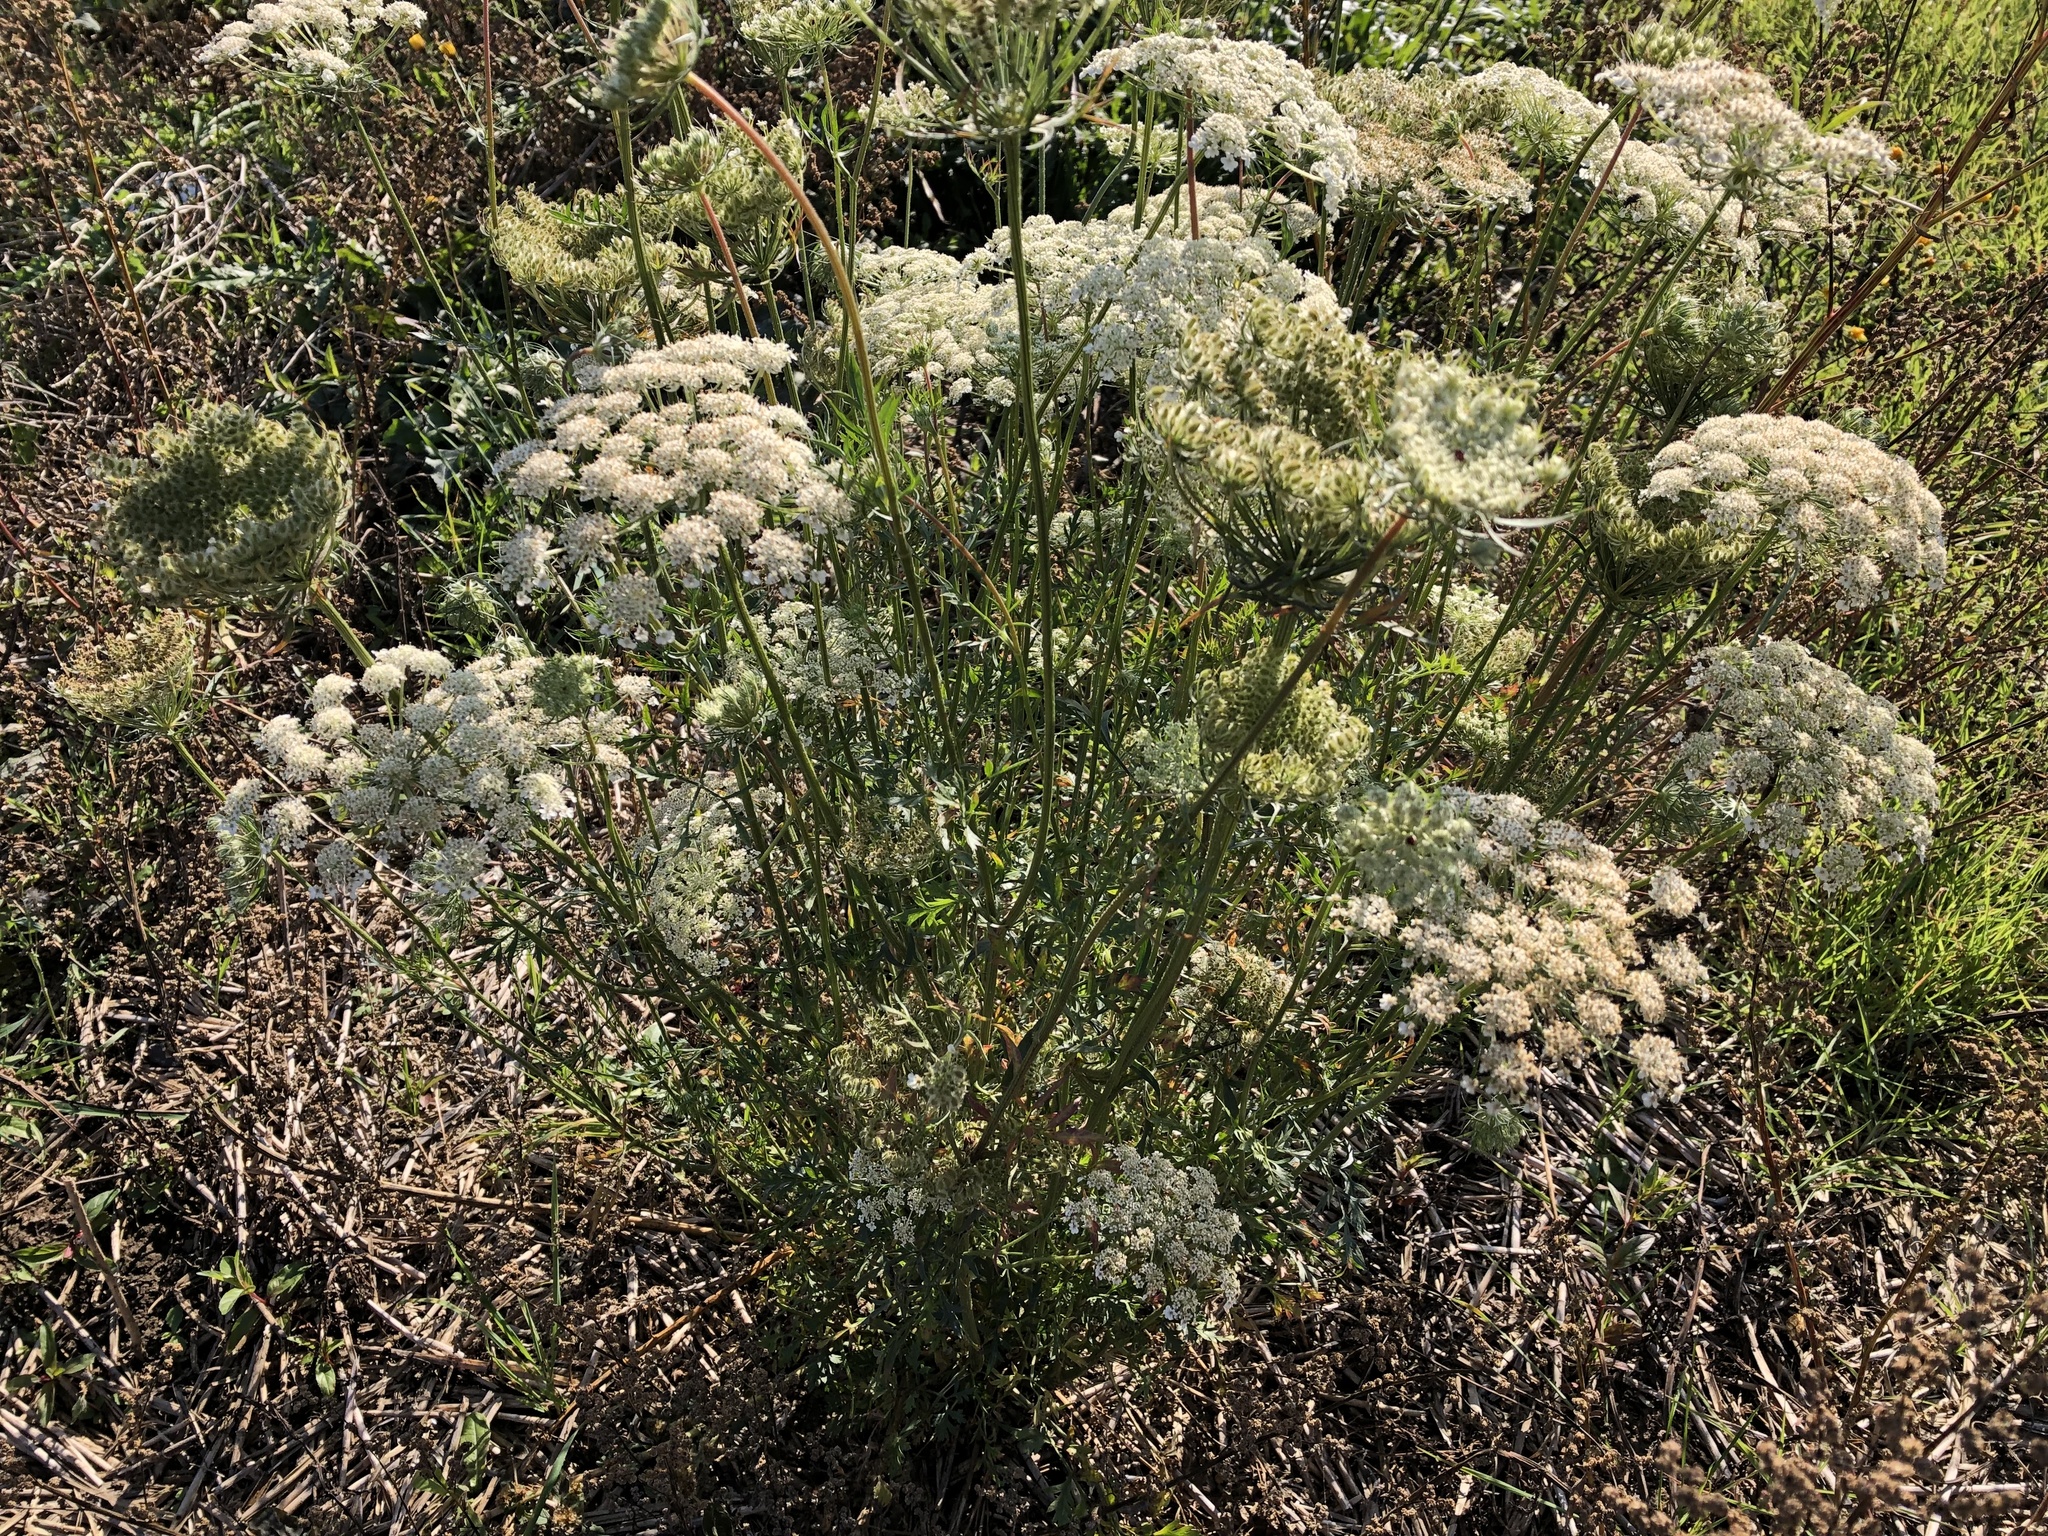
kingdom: Plantae
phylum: Tracheophyta
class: Magnoliopsida
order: Apiales
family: Apiaceae
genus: Daucus
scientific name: Daucus carota
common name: Wild carrot
